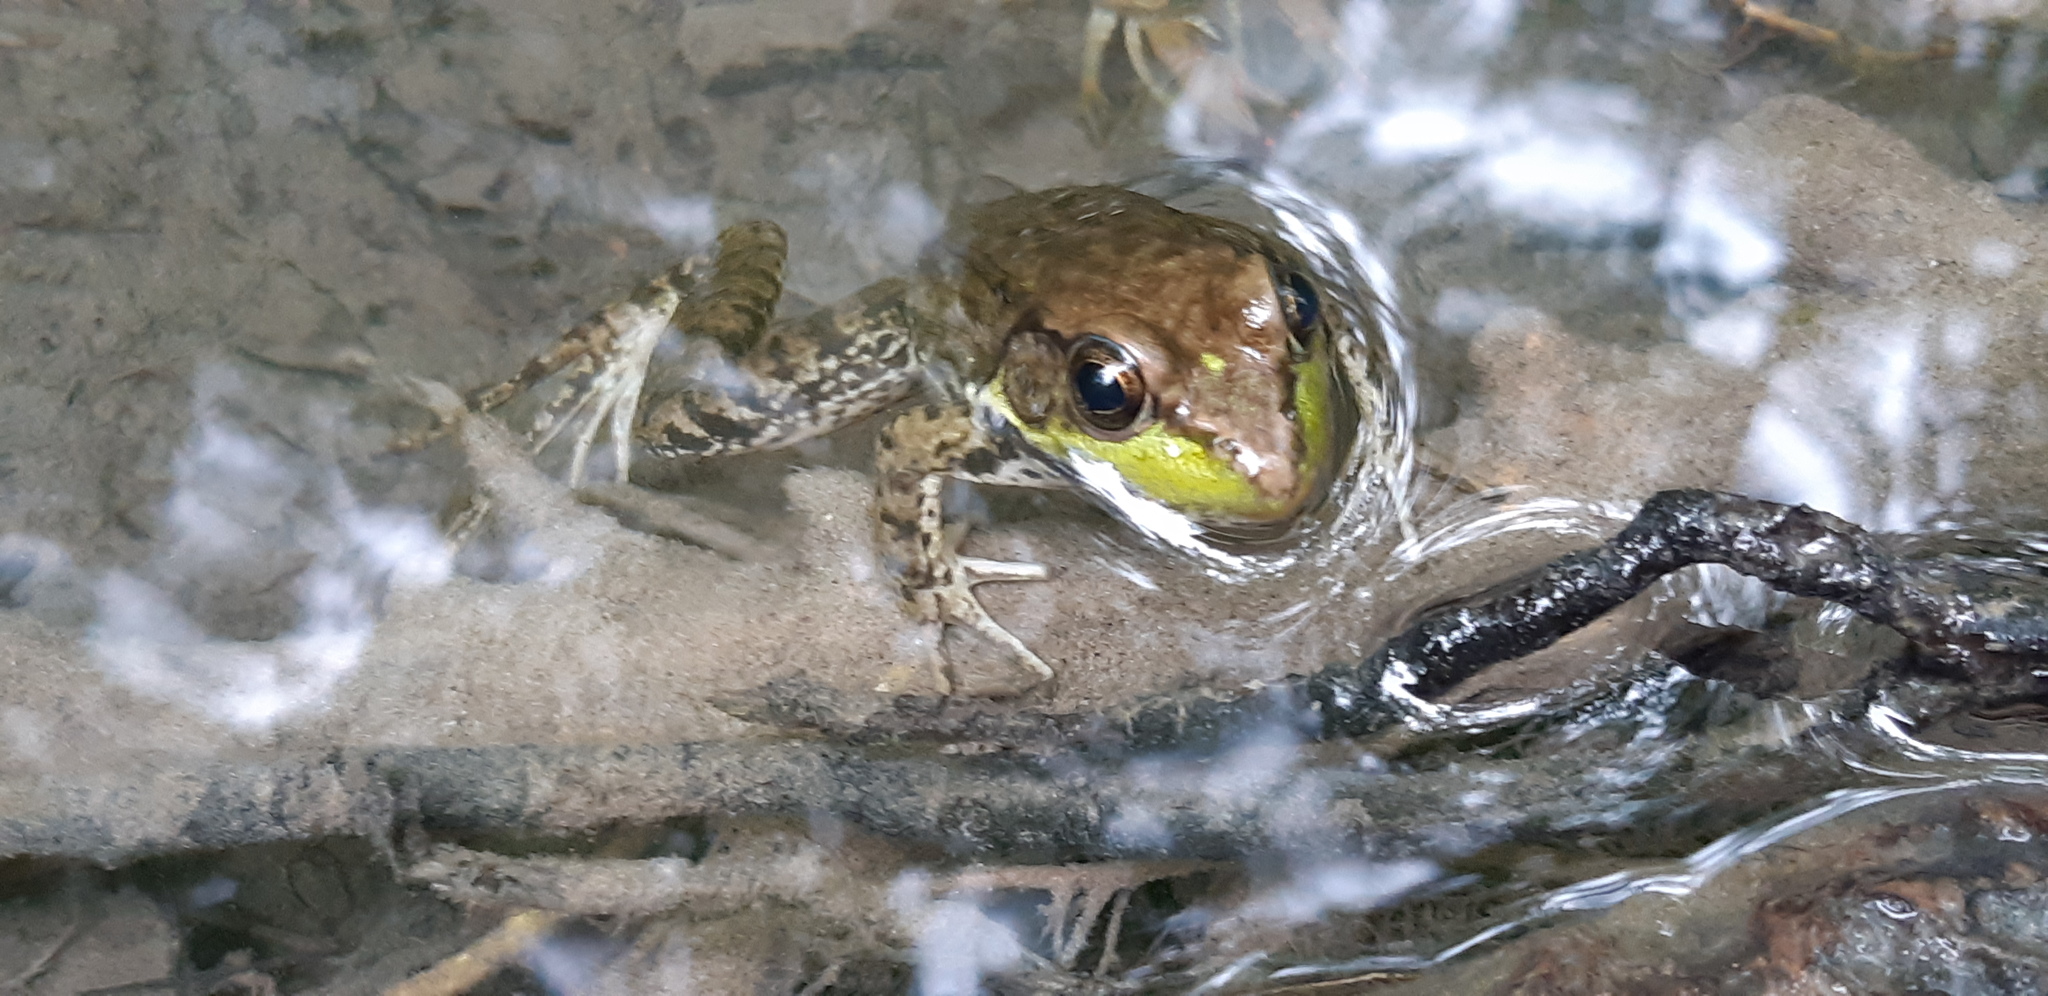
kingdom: Animalia
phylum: Chordata
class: Amphibia
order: Anura
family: Ranidae
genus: Lithobates
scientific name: Lithobates clamitans
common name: Green frog
